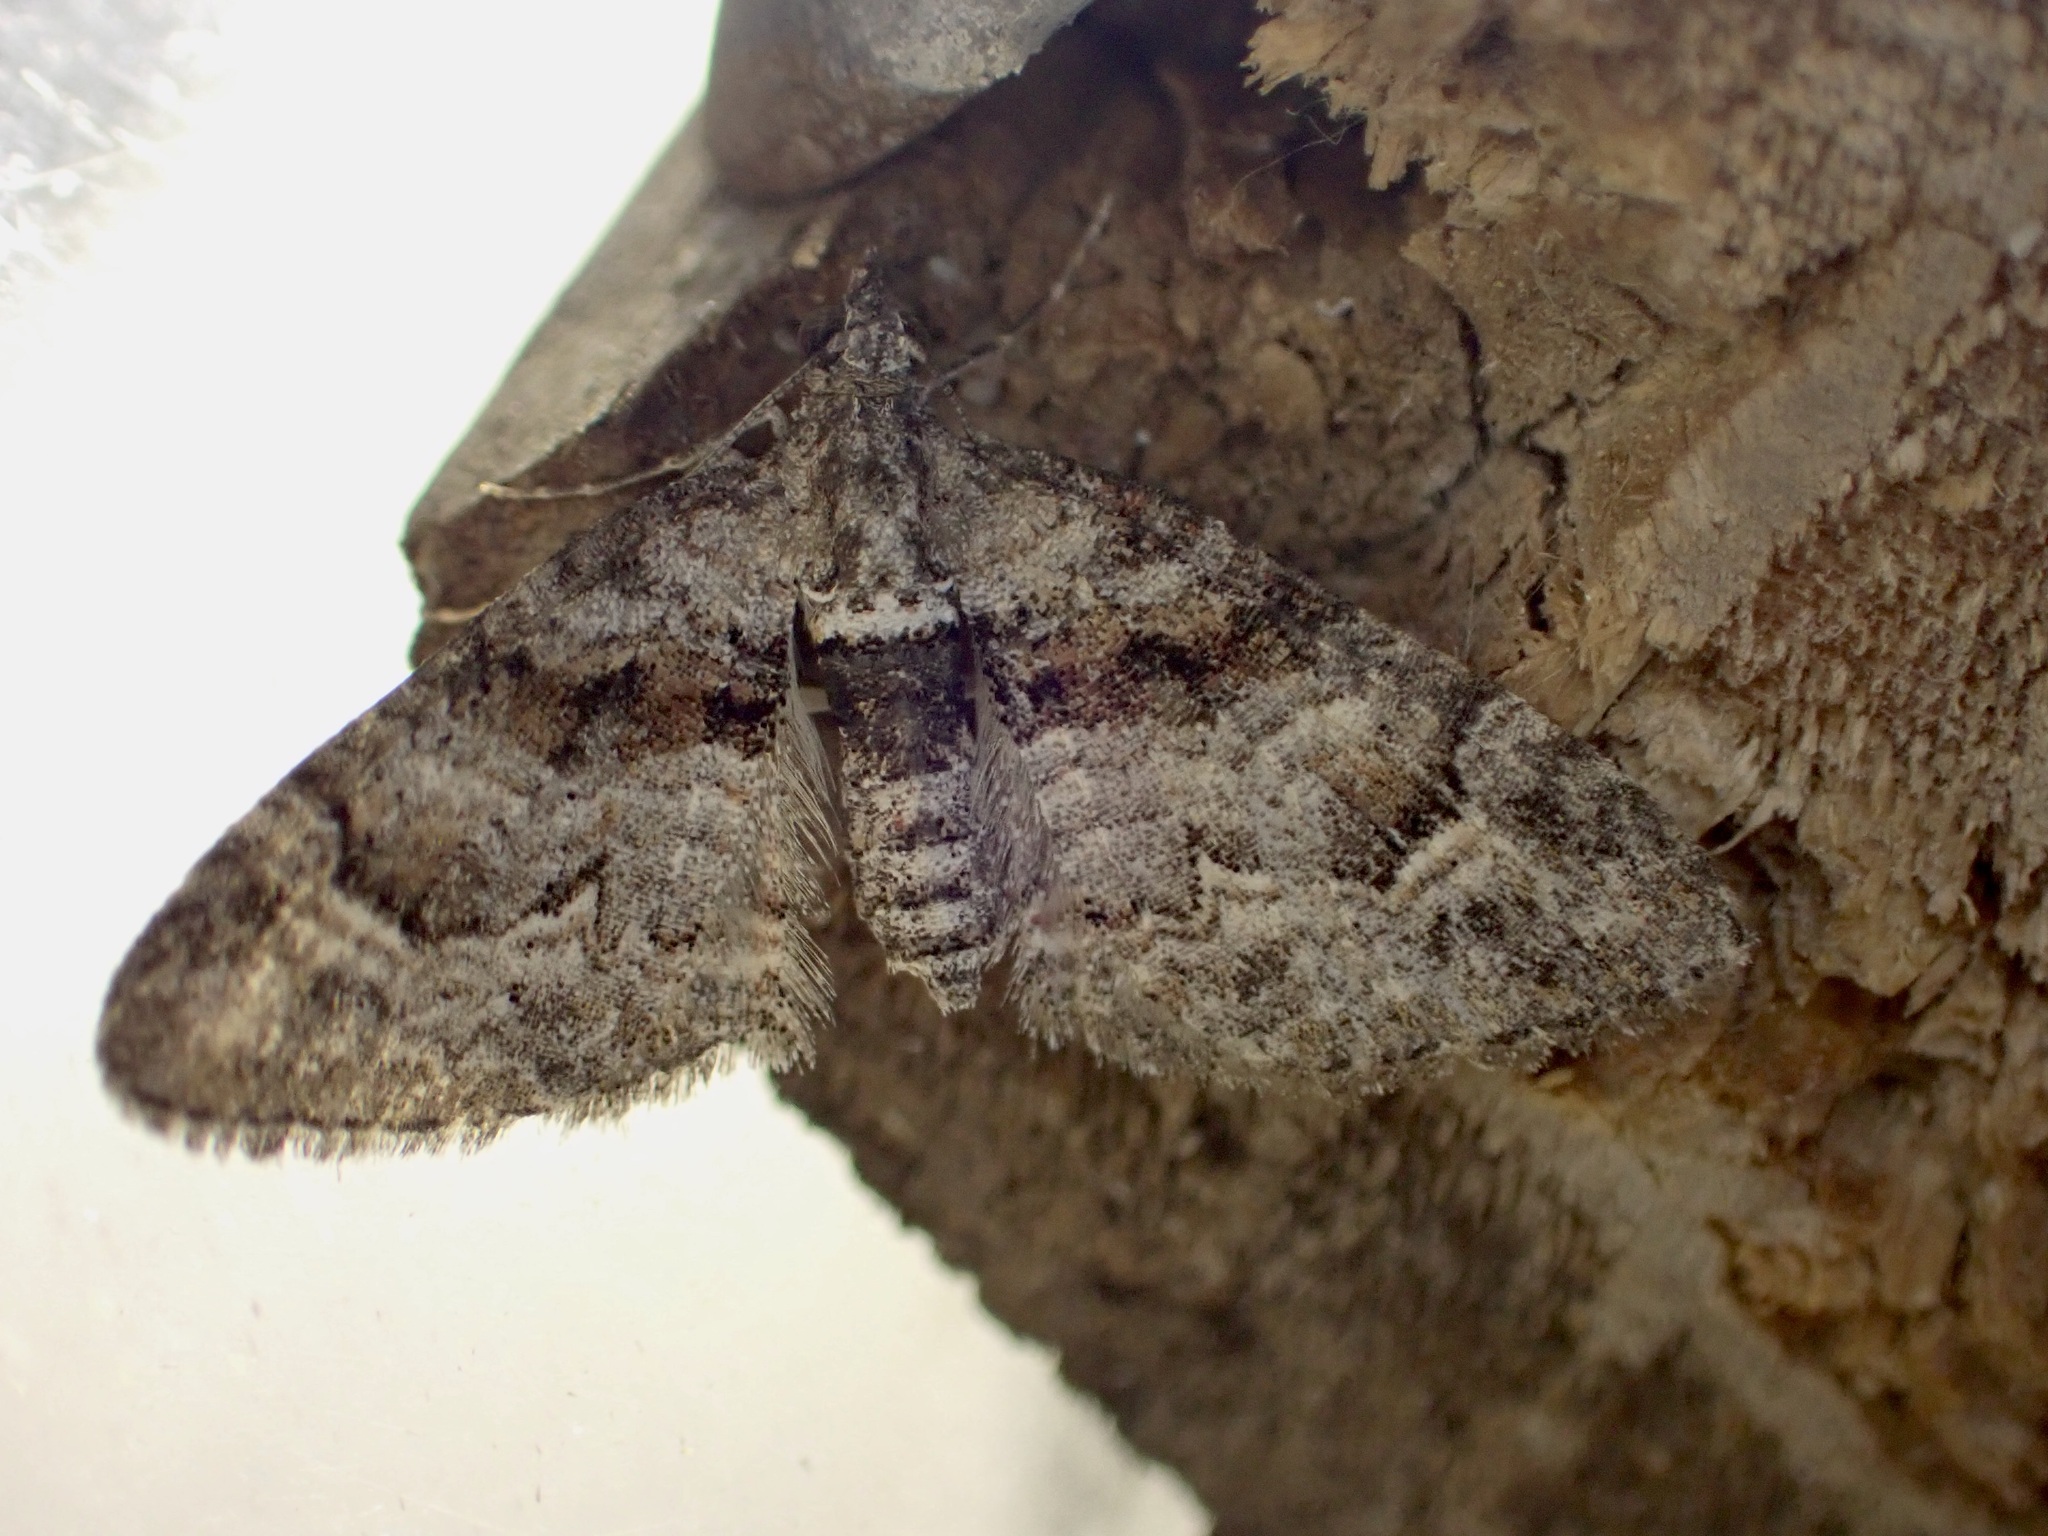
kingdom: Animalia
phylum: Arthropoda
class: Insecta
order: Lepidoptera
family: Geometridae
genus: Phrissogonus
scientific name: Phrissogonus laticostata
